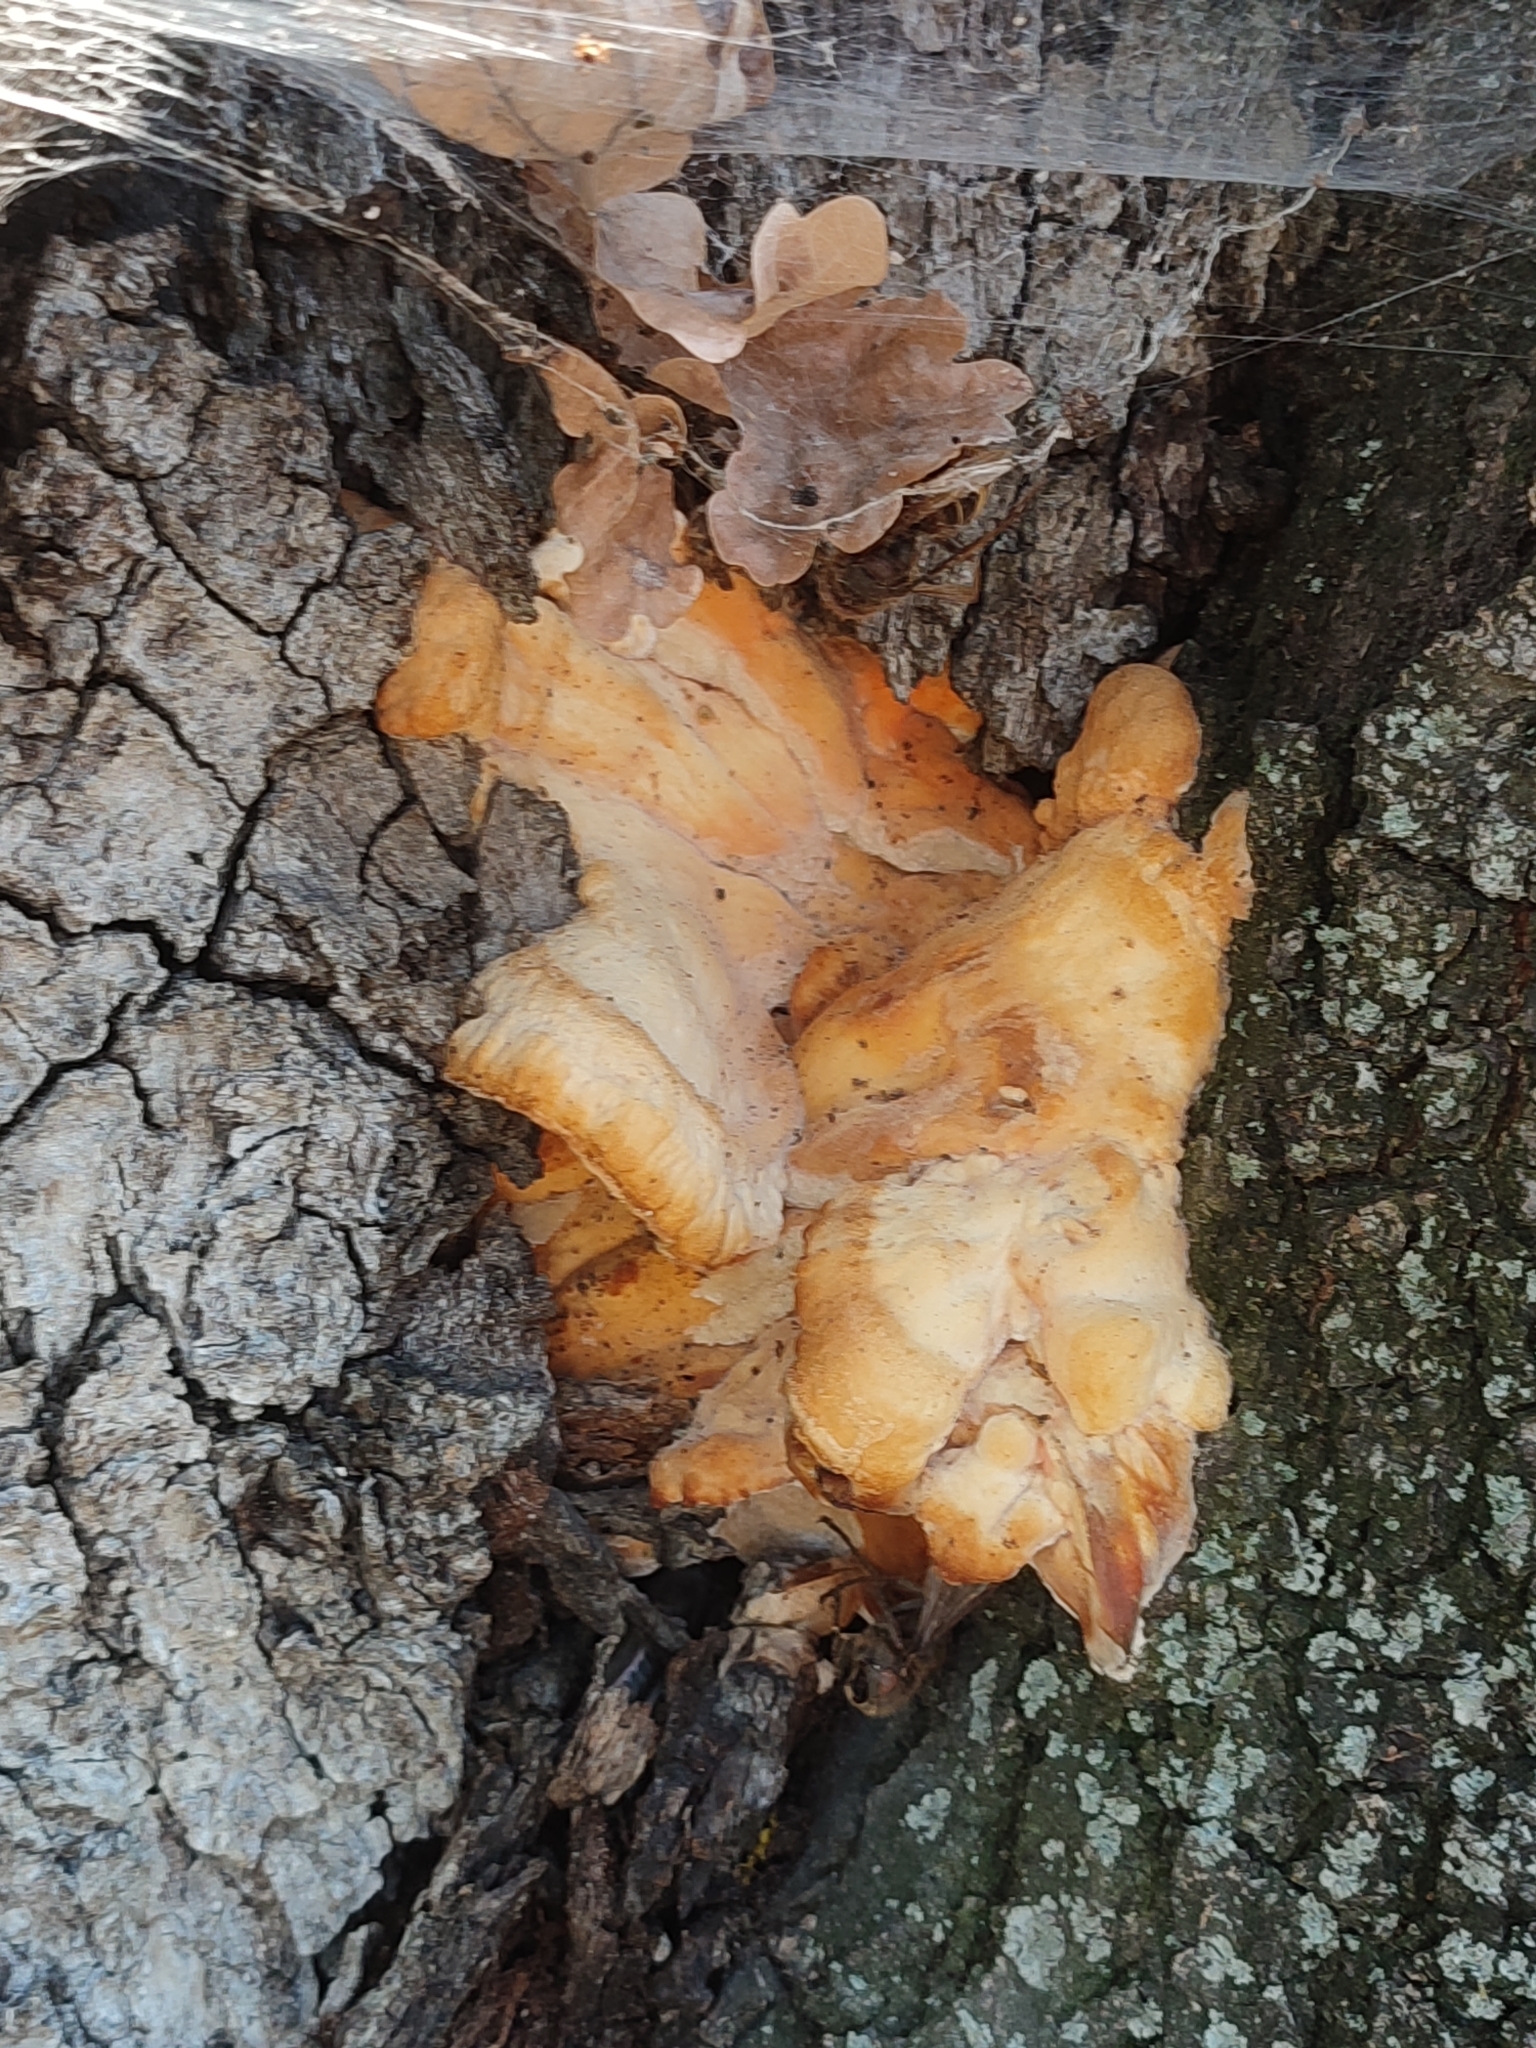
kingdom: Fungi
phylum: Basidiomycota
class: Agaricomycetes
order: Polyporales
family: Laetiporaceae
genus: Laetiporus
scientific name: Laetiporus sulphureus
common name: Chicken of the woods
